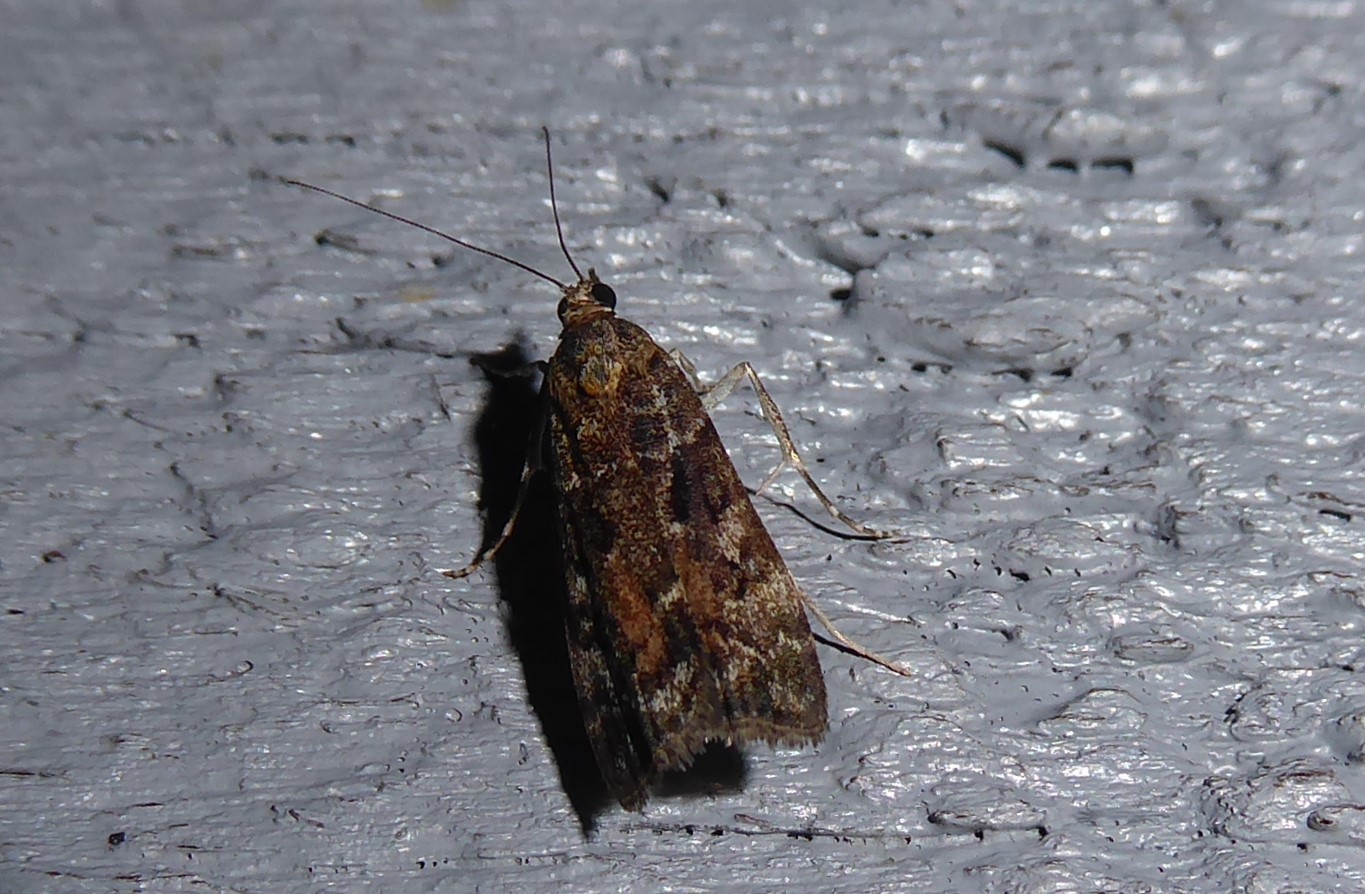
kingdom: Animalia
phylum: Arthropoda
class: Insecta
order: Lepidoptera
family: Crambidae
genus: Eudonia
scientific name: Eudonia submarginalis
